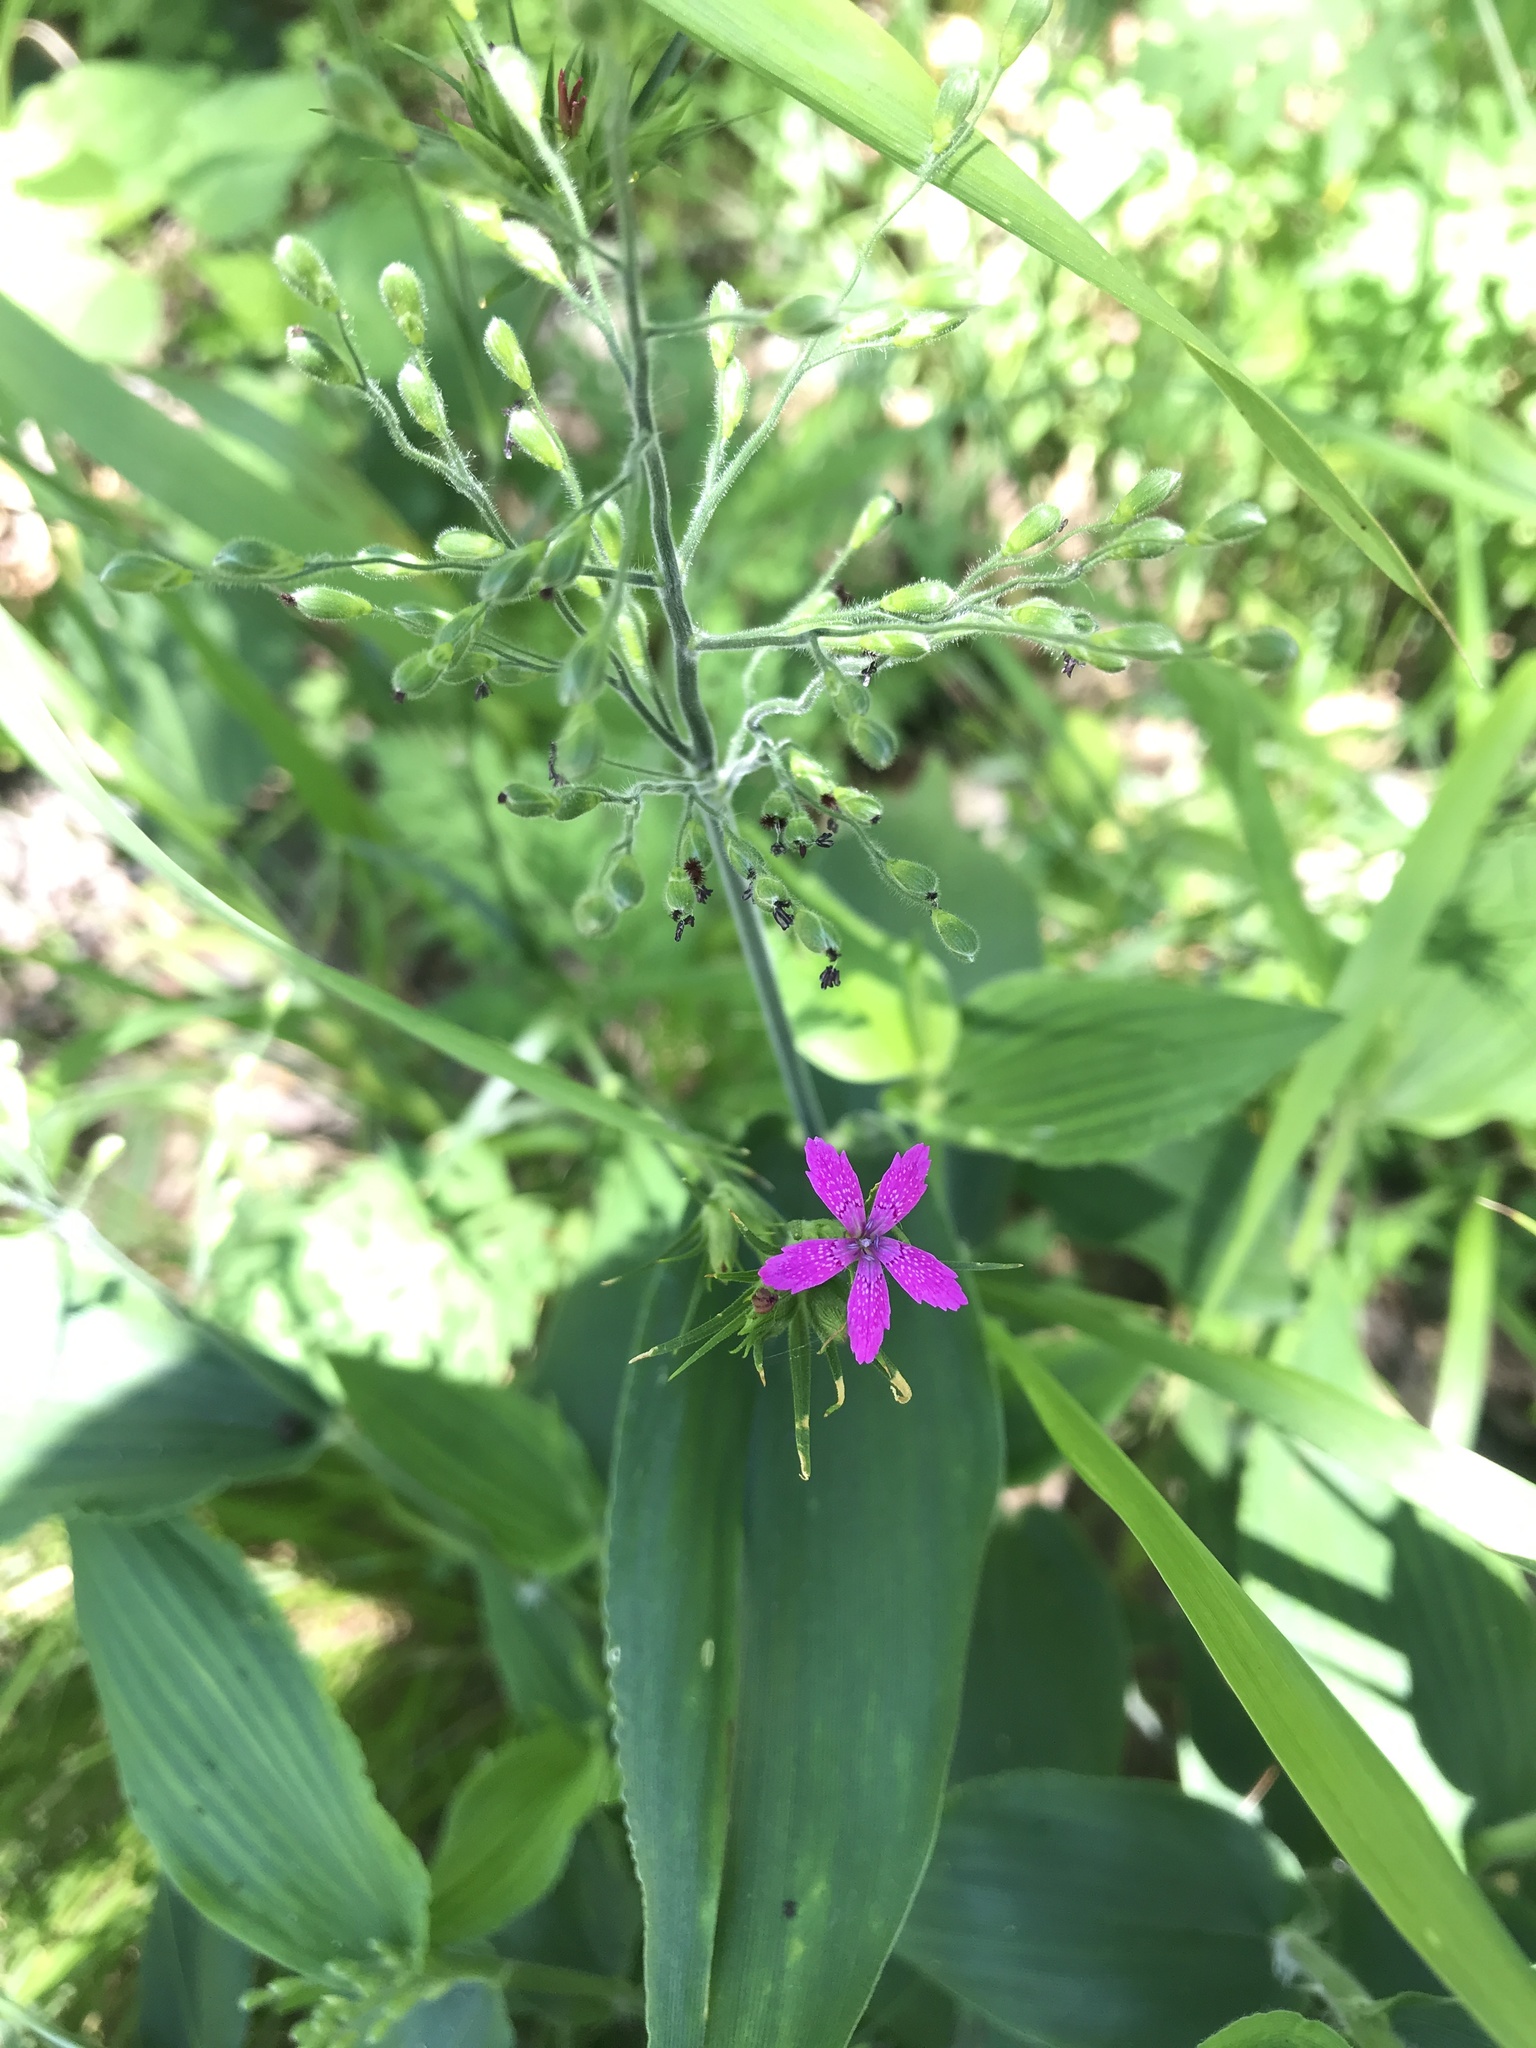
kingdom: Plantae
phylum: Tracheophyta
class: Magnoliopsida
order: Caryophyllales
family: Caryophyllaceae
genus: Dianthus
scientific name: Dianthus armeria
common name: Deptford pink
